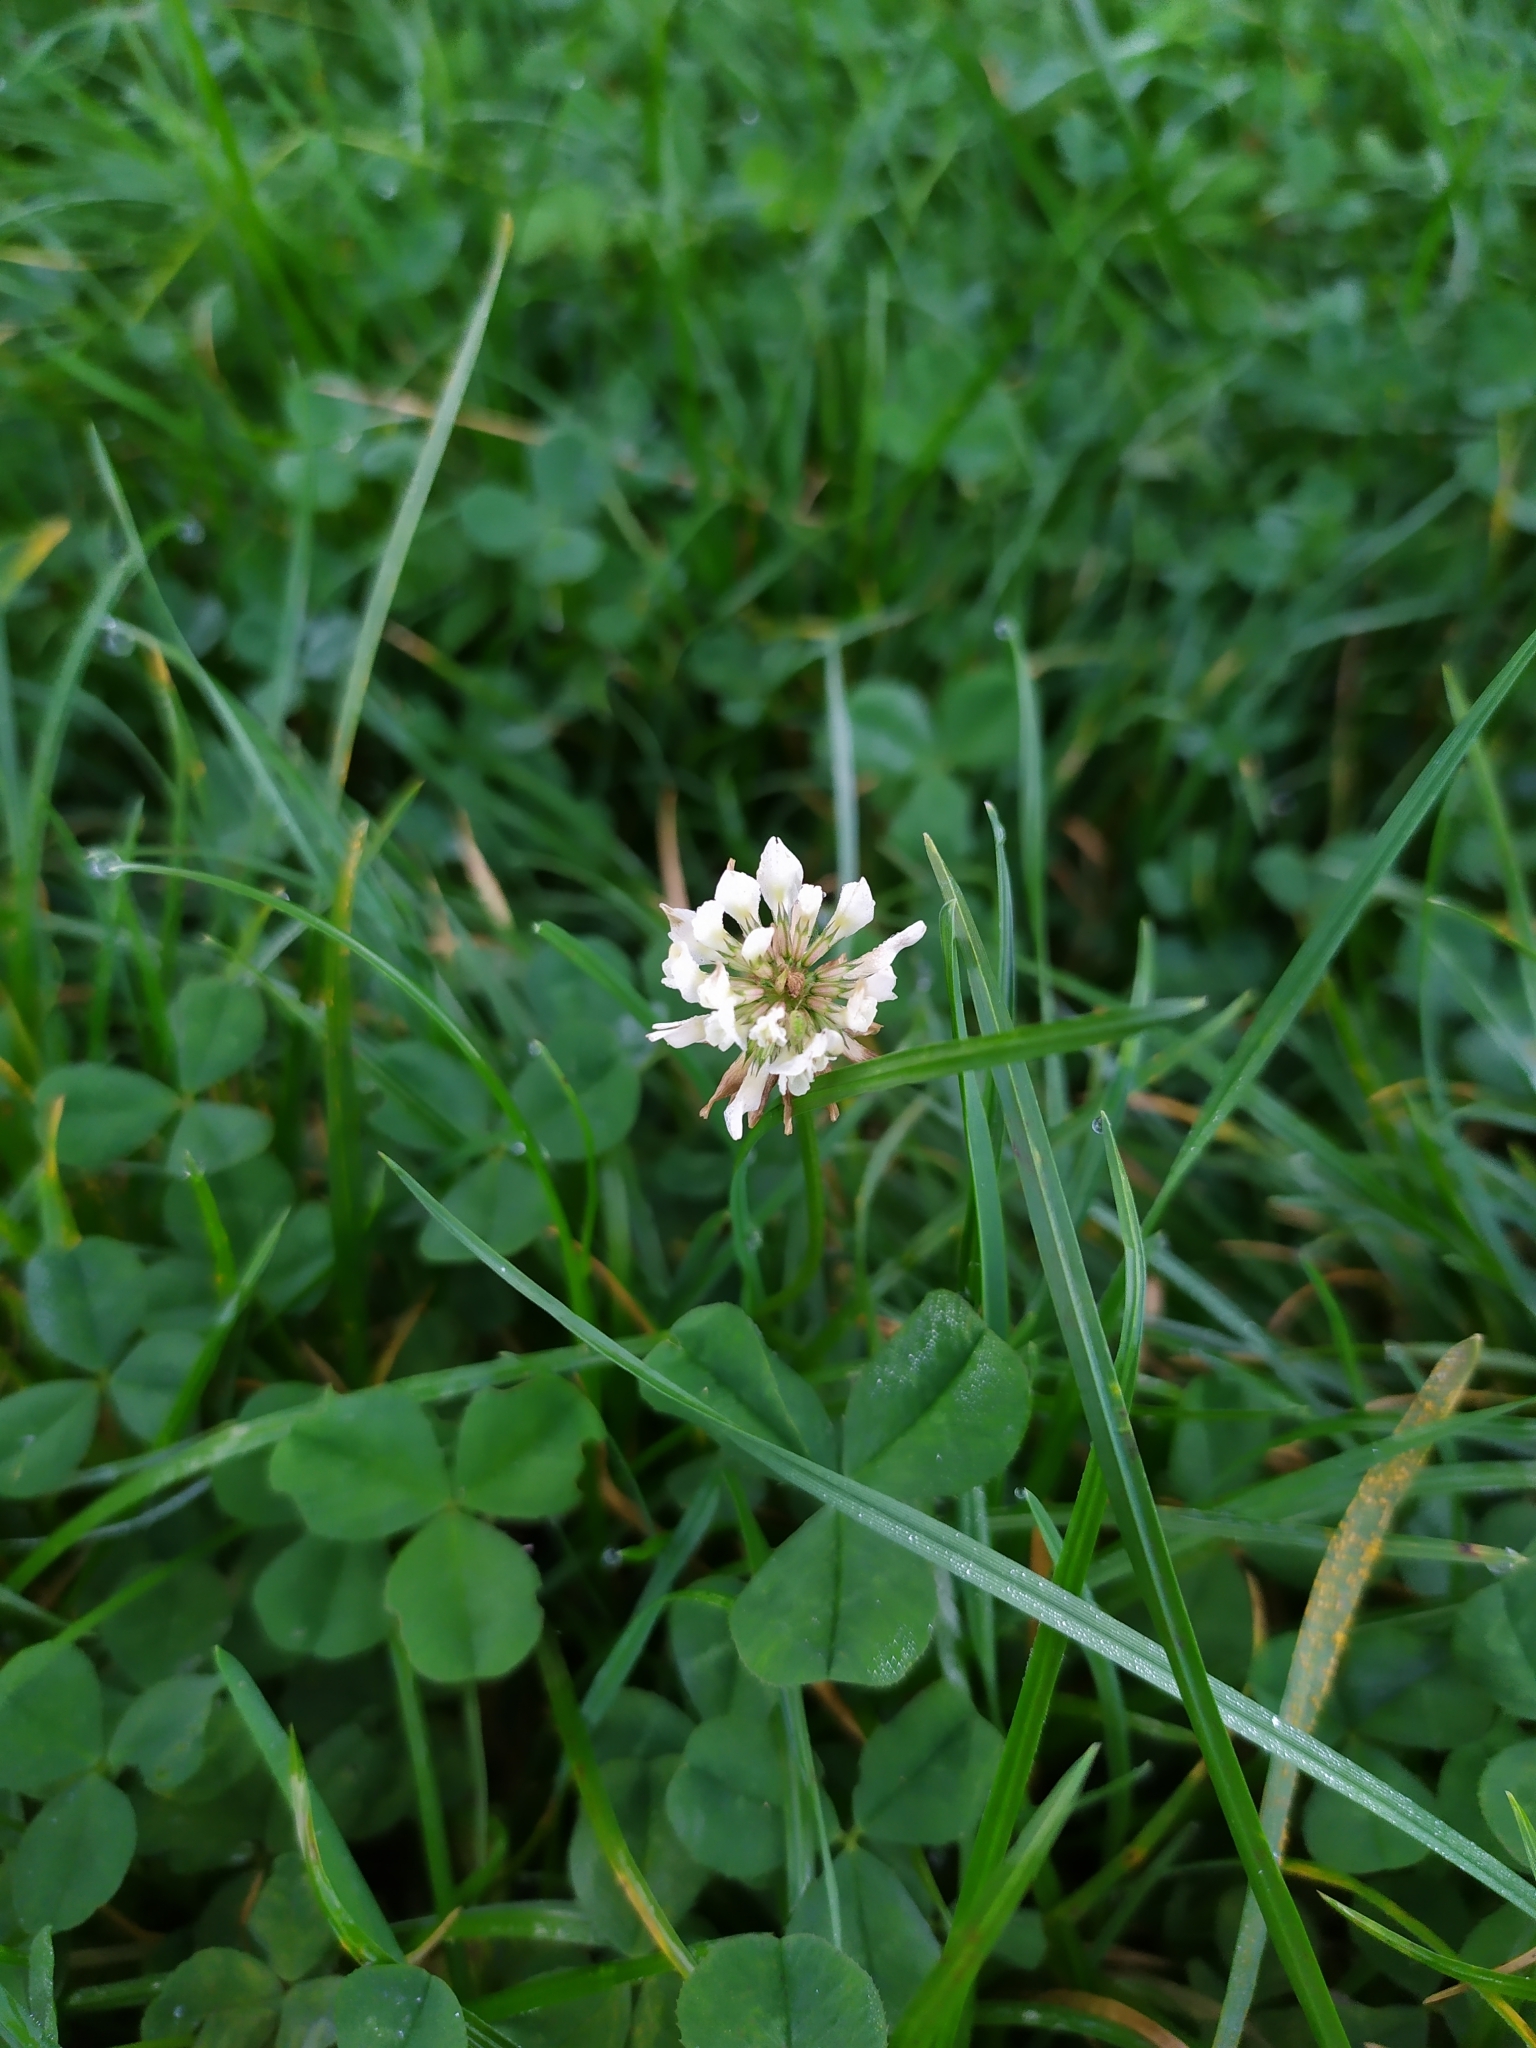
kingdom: Plantae
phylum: Tracheophyta
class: Magnoliopsida
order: Fabales
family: Fabaceae
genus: Trifolium
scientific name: Trifolium repens
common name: White clover
